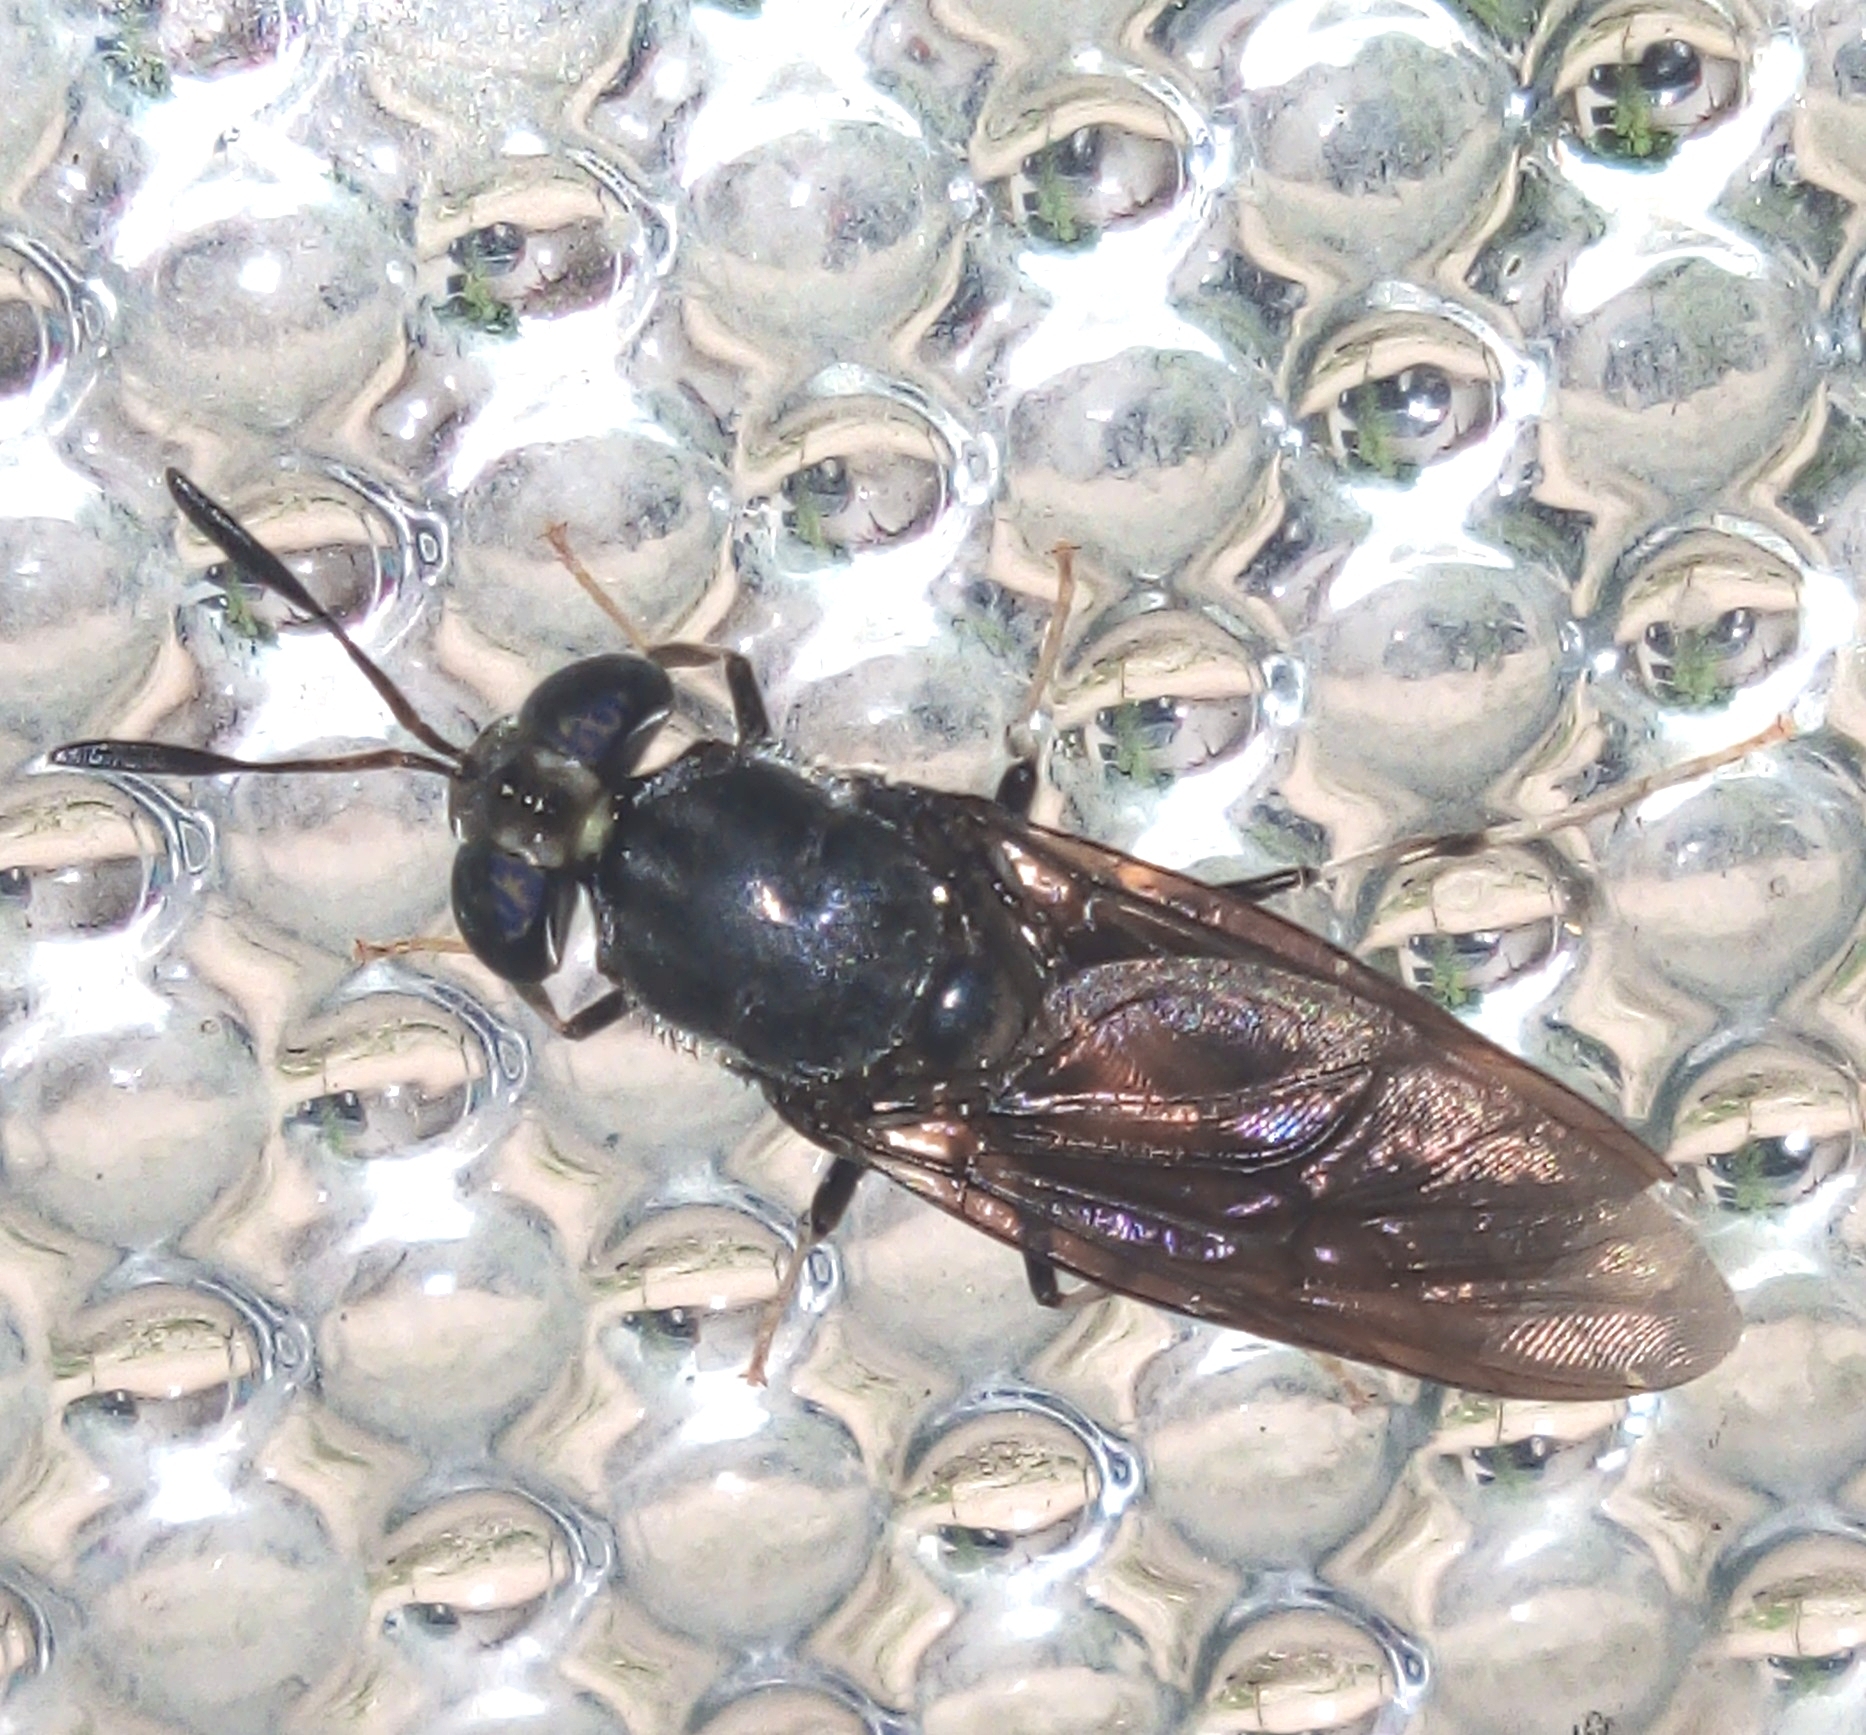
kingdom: Animalia
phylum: Arthropoda
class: Insecta
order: Diptera
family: Stratiomyidae
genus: Hermetia
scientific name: Hermetia illucens
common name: Black soldier fly
